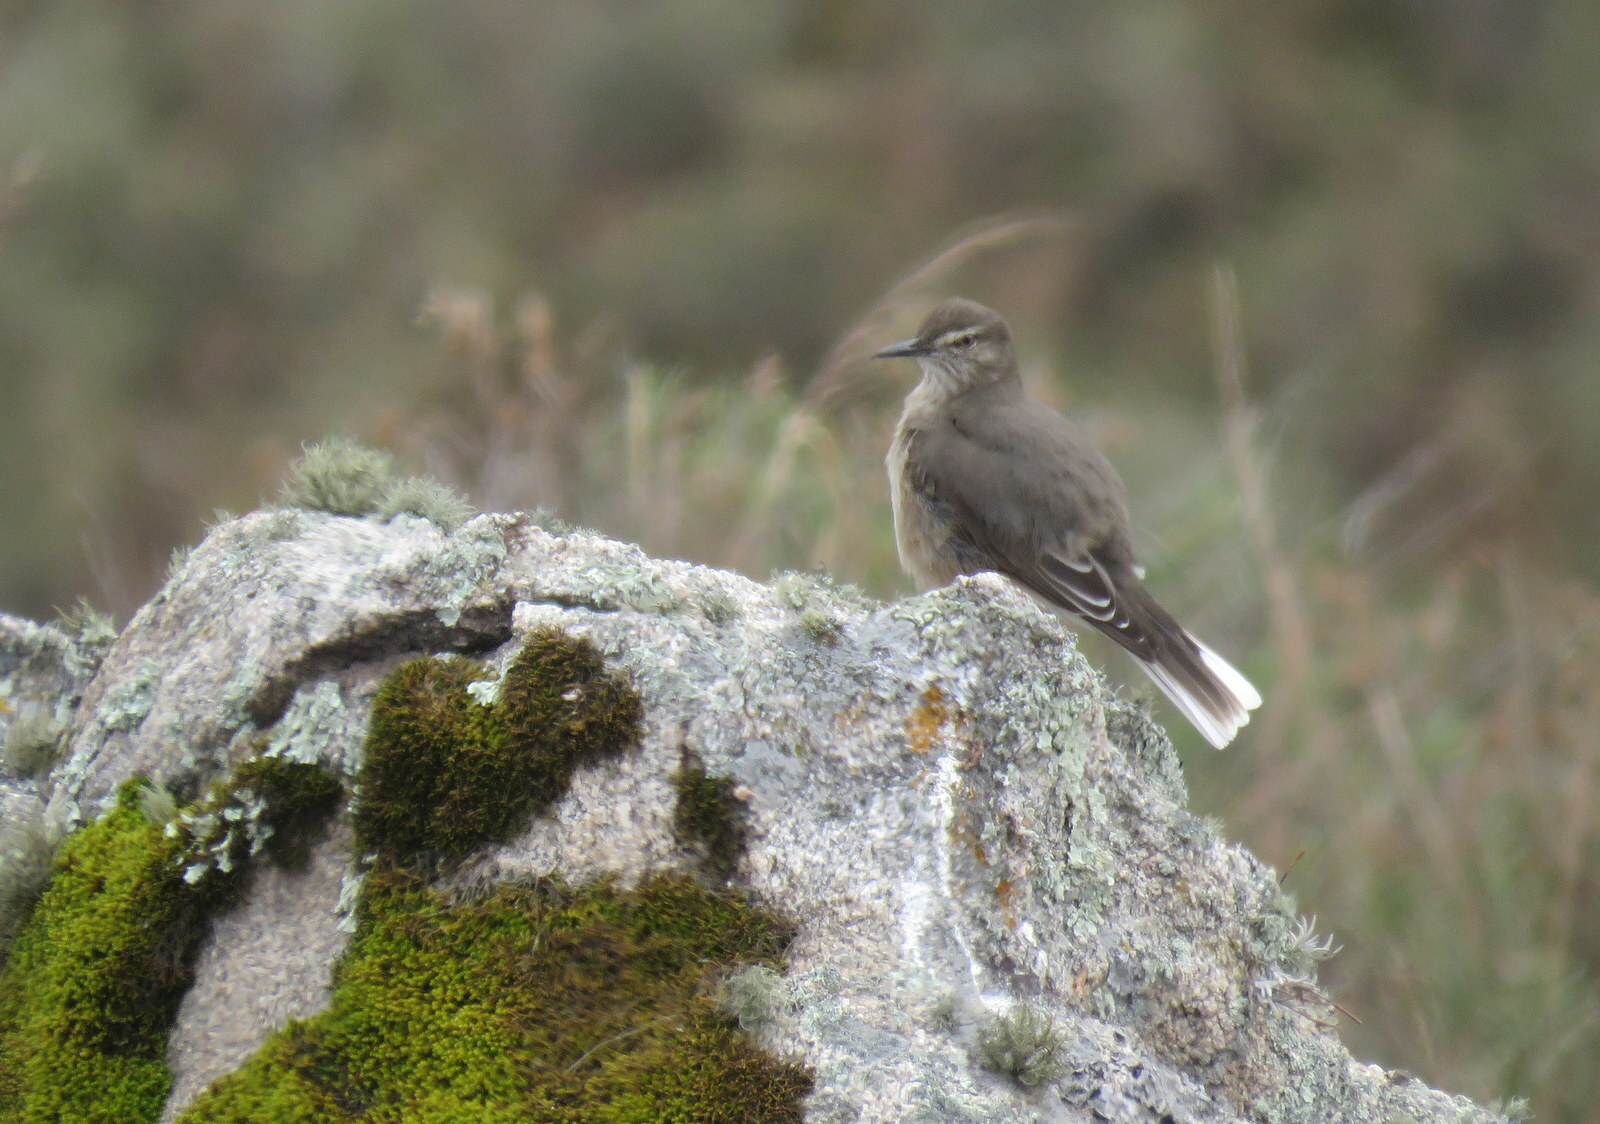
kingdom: Animalia
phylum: Chordata
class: Aves
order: Passeriformes
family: Tyrannidae
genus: Agriornis
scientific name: Agriornis montanus
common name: Black-billed shrike-tyrant
